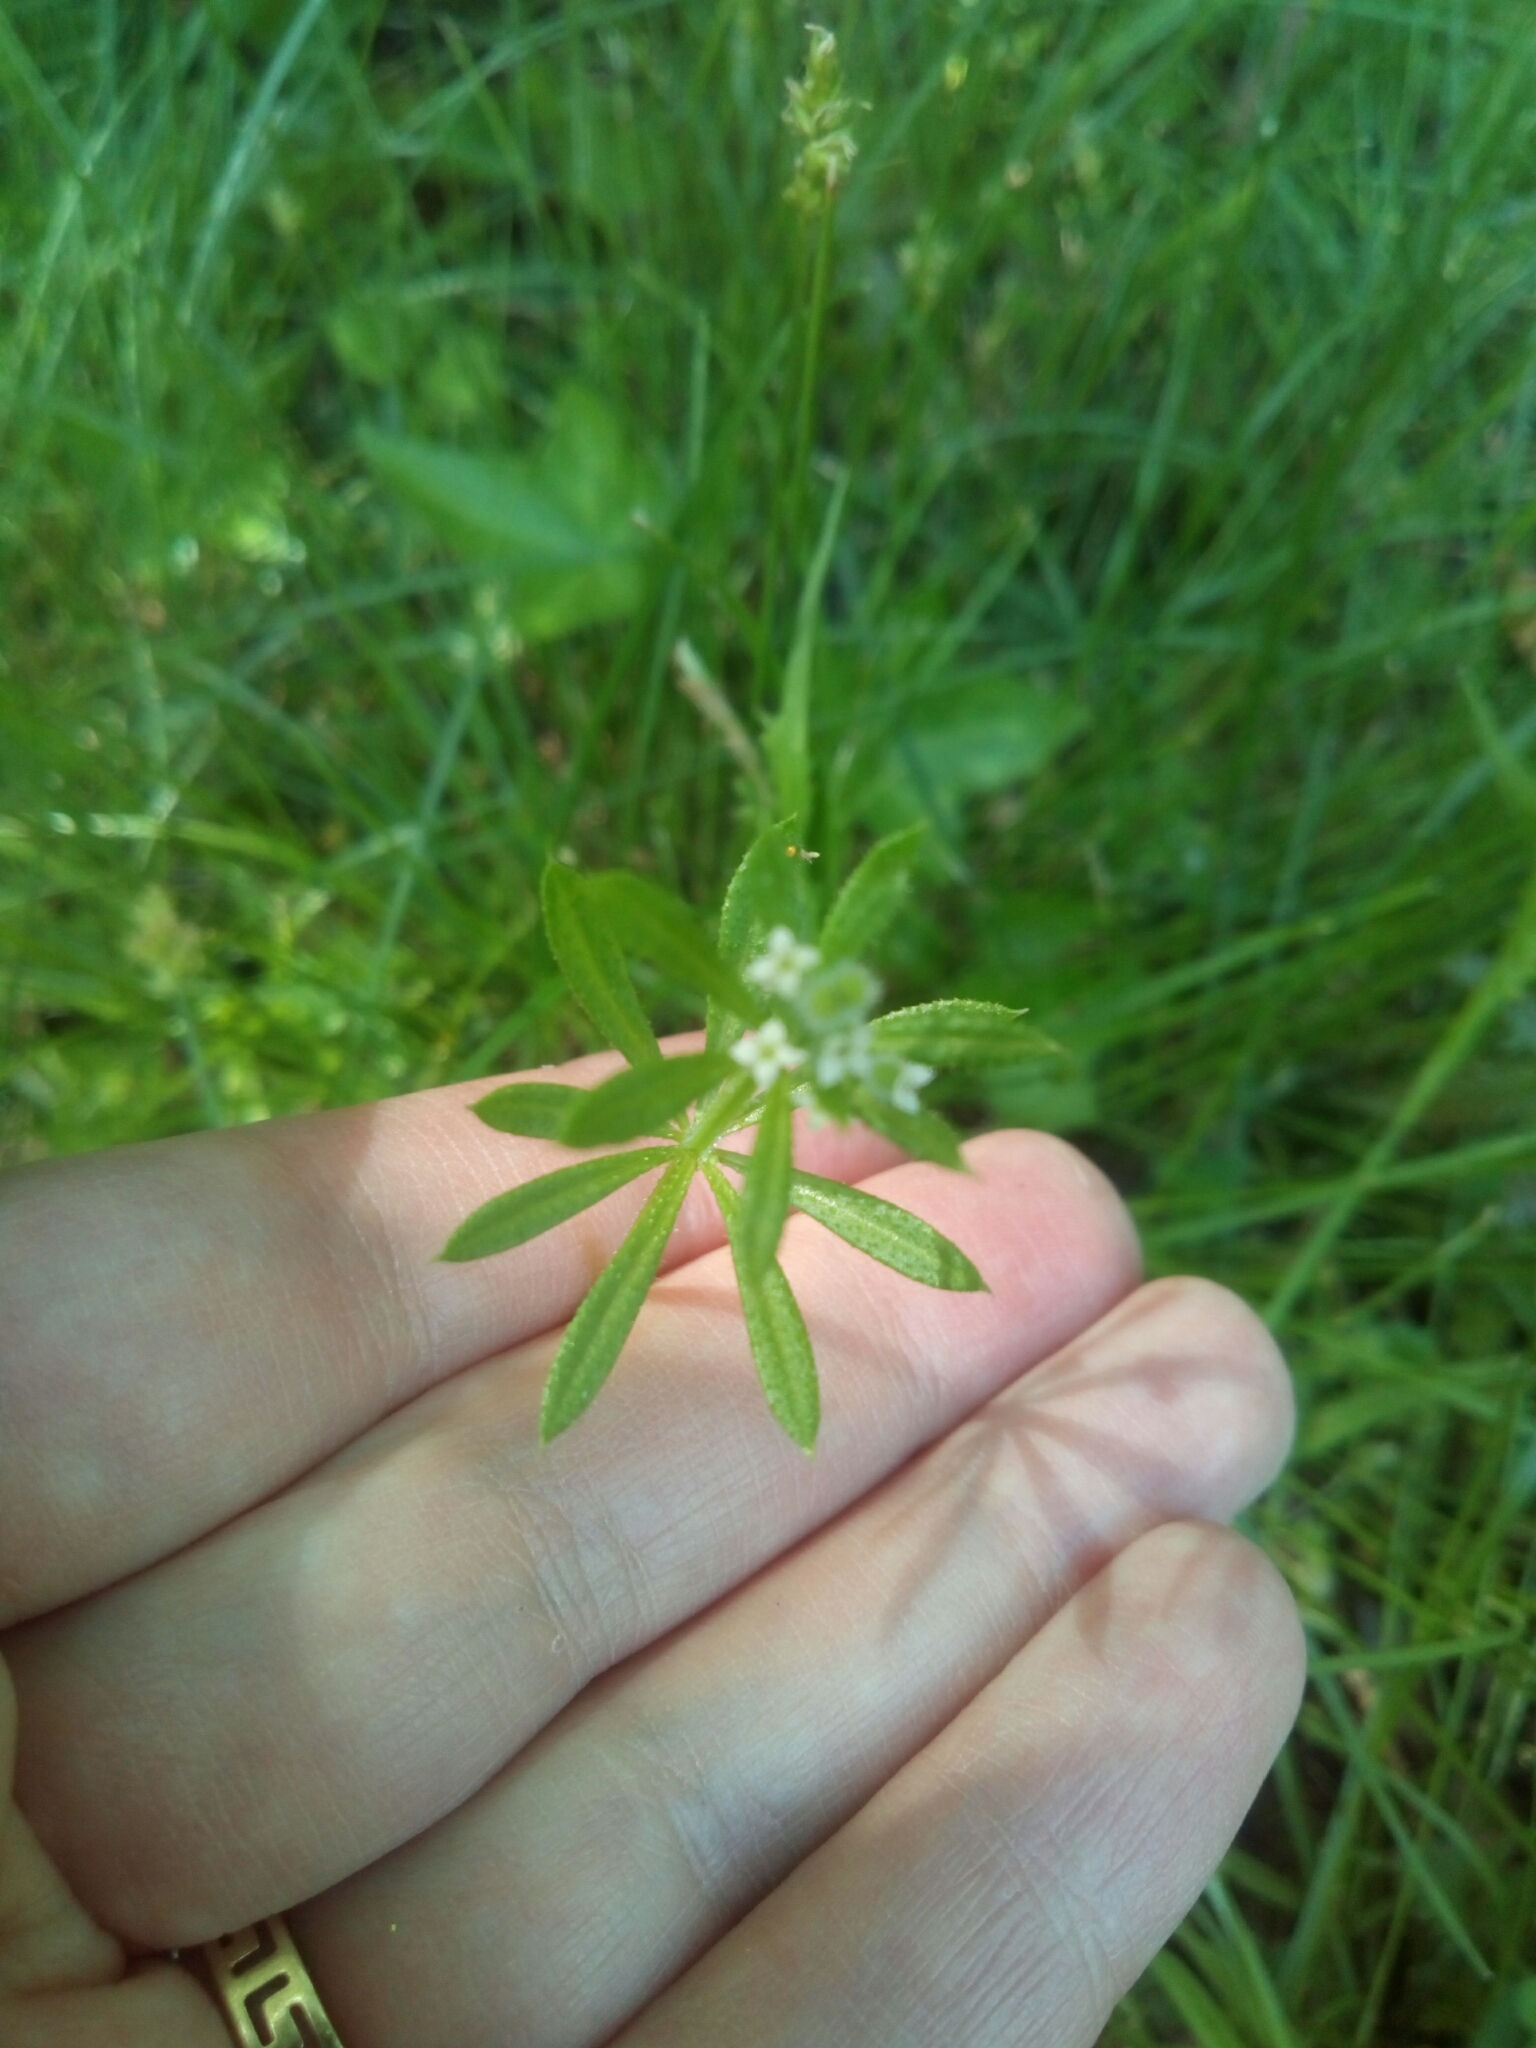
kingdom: Plantae
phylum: Tracheophyta
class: Magnoliopsida
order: Gentianales
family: Rubiaceae
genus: Galium
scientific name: Galium aparine
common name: Cleavers
